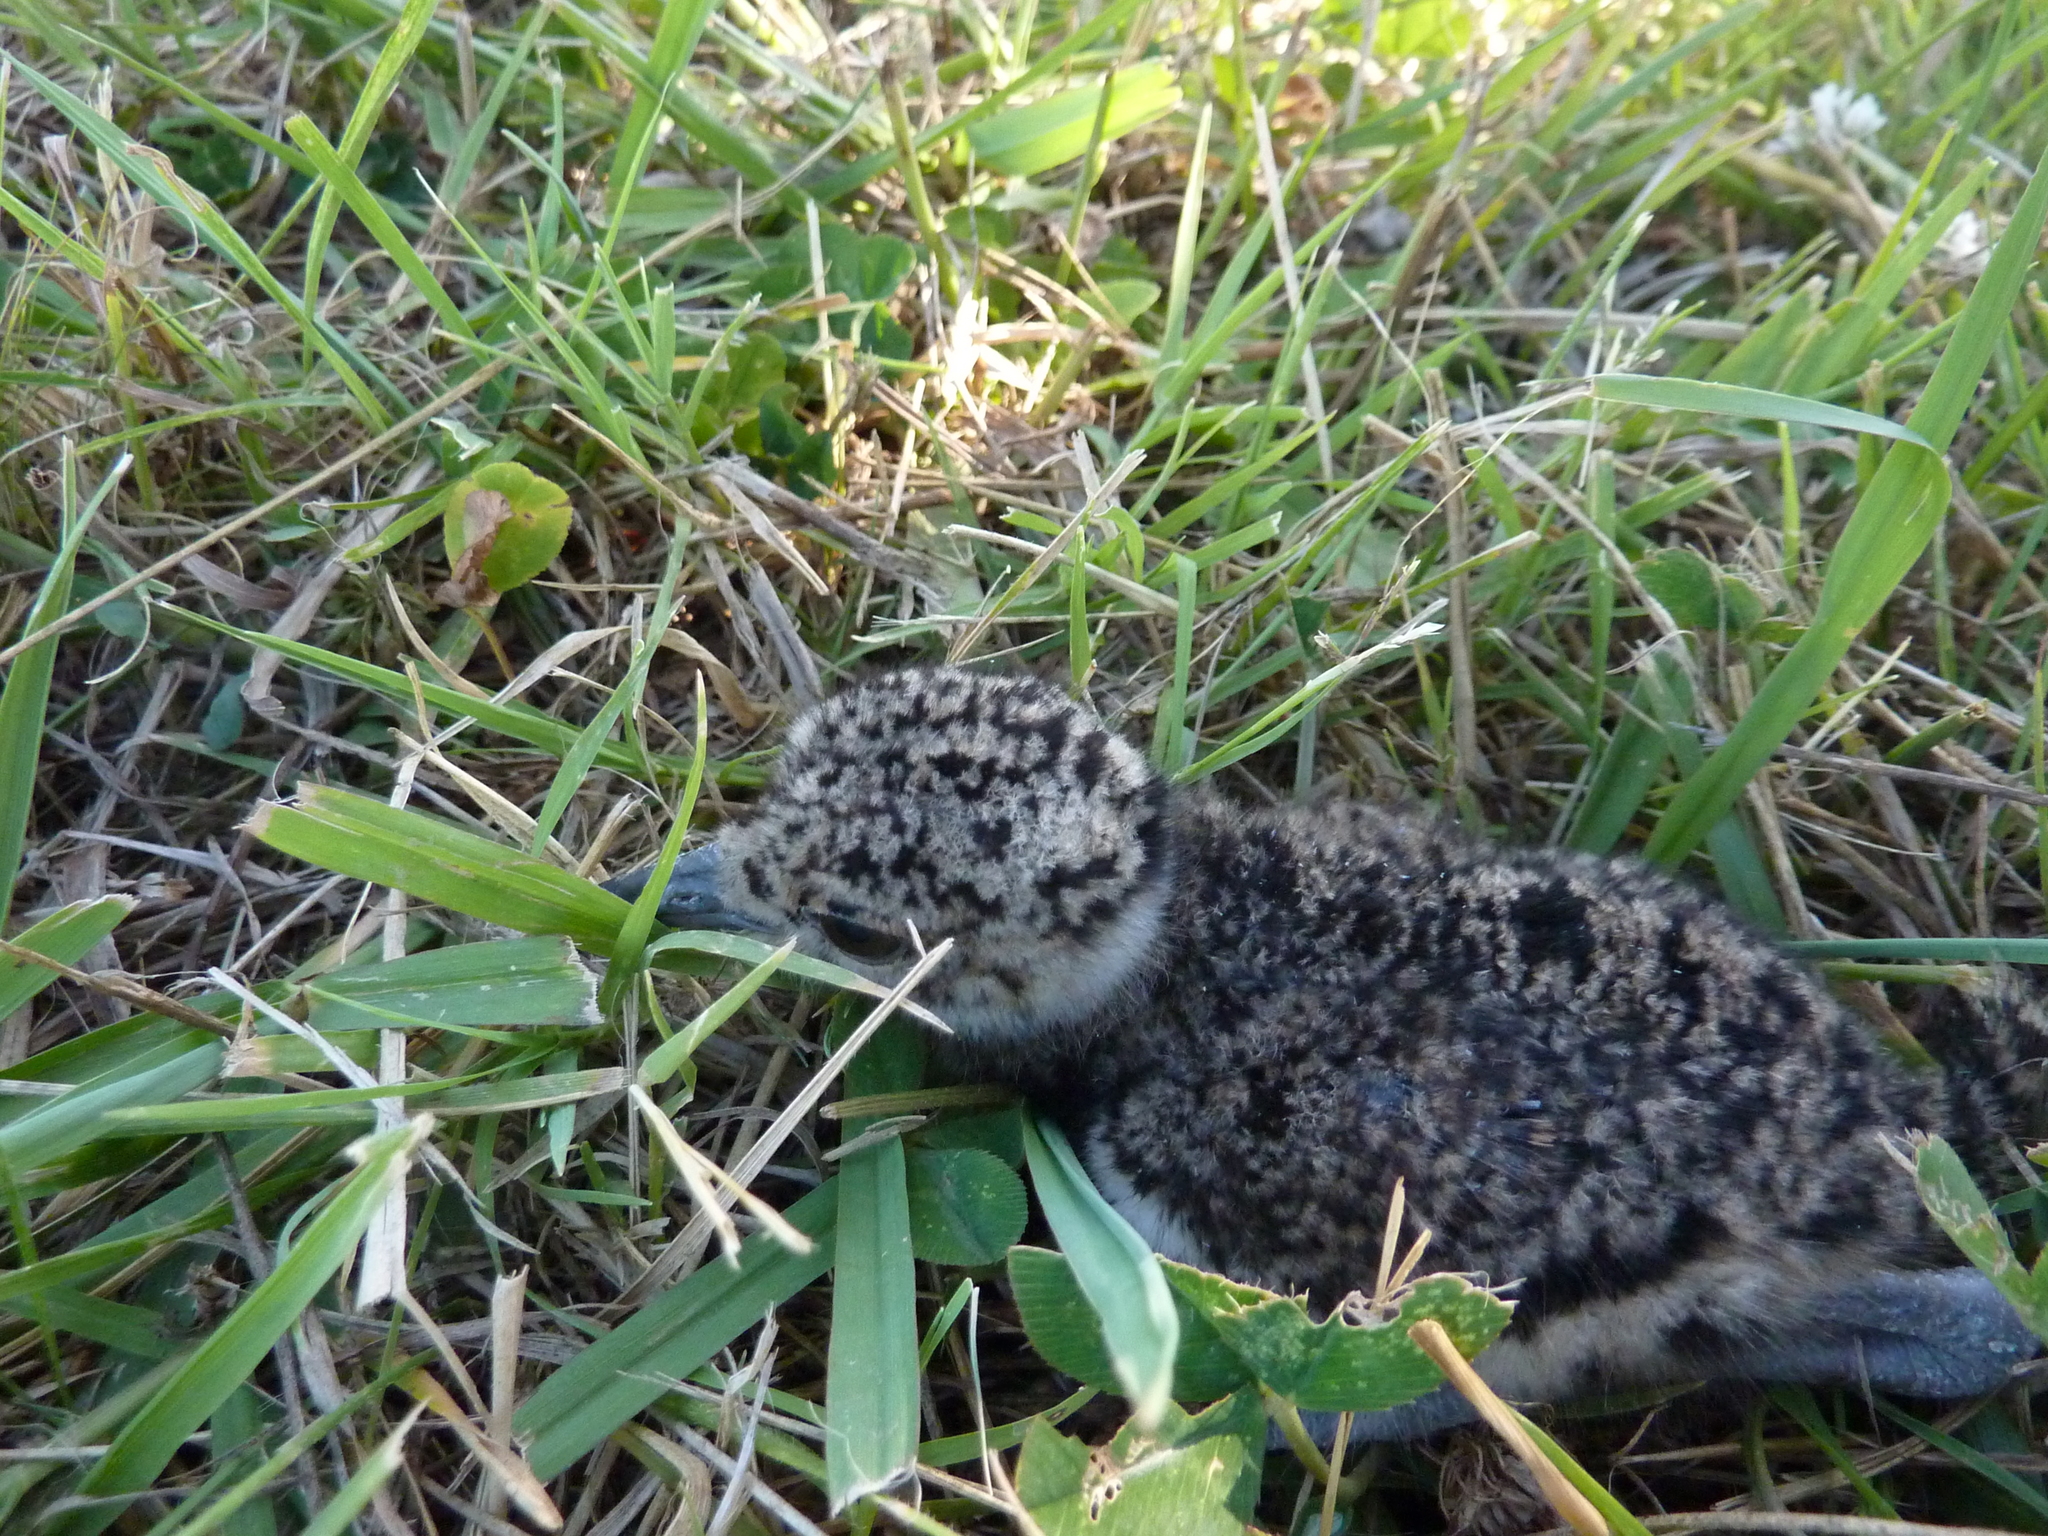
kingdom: Animalia
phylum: Chordata
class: Aves
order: Charadriiformes
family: Charadriidae
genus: Vanellus
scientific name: Vanellus chilensis
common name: Southern lapwing
